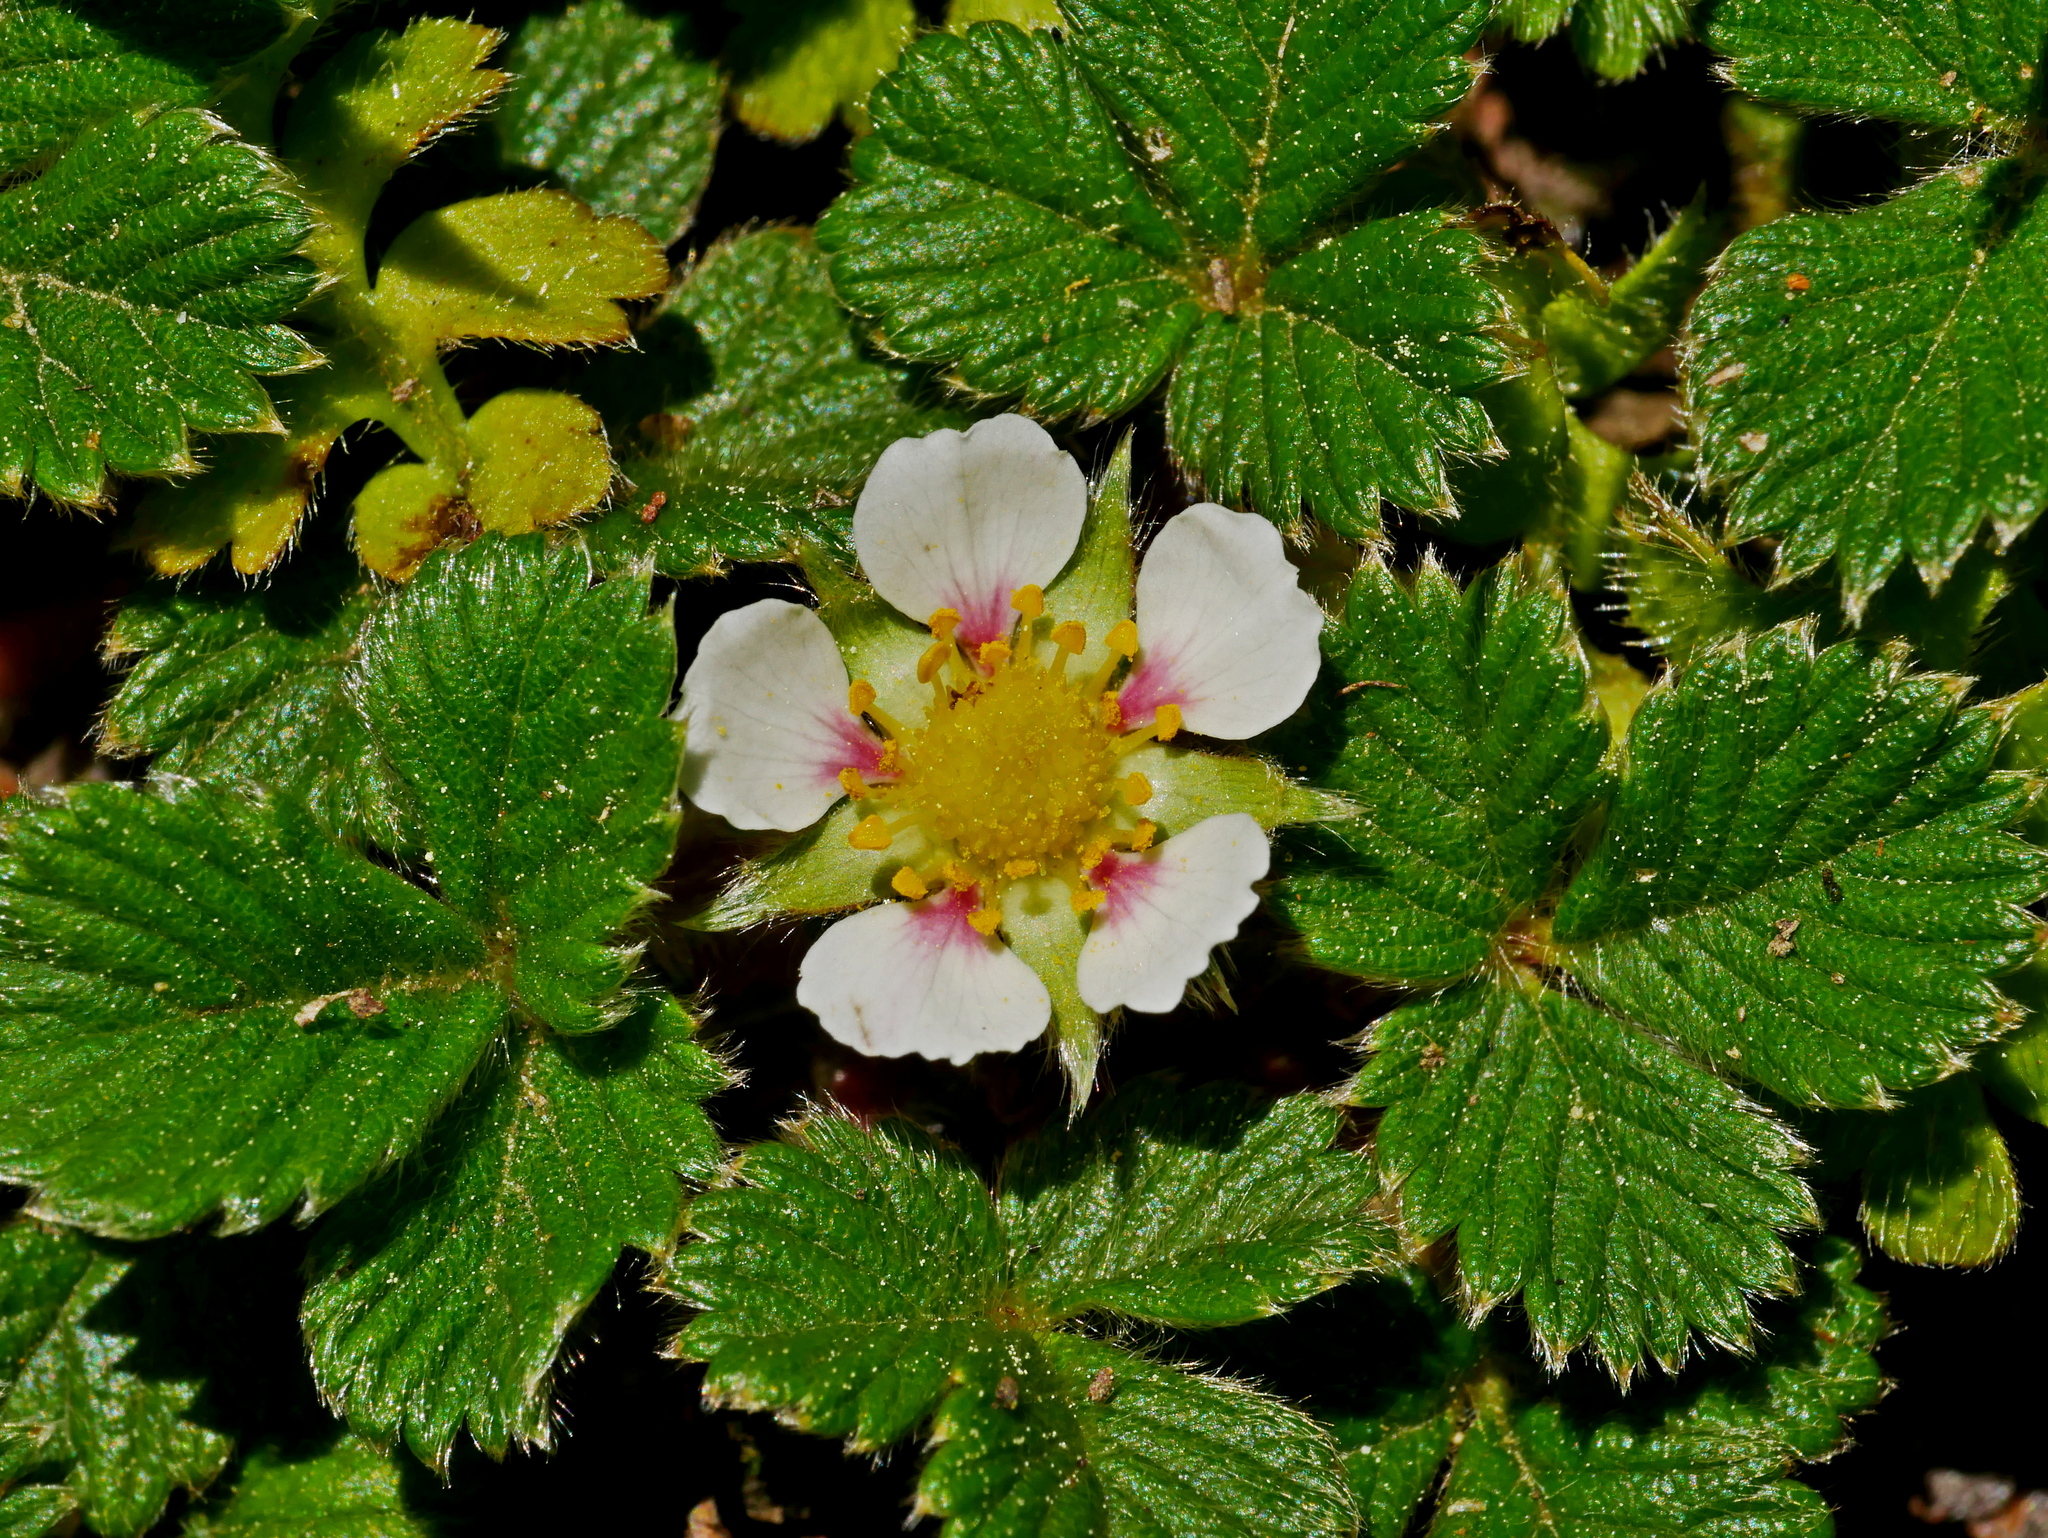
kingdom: Plantae
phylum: Tracheophyta
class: Magnoliopsida
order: Rosales
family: Rosaceae
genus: Fragaria
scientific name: Fragaria nilgerrensis
